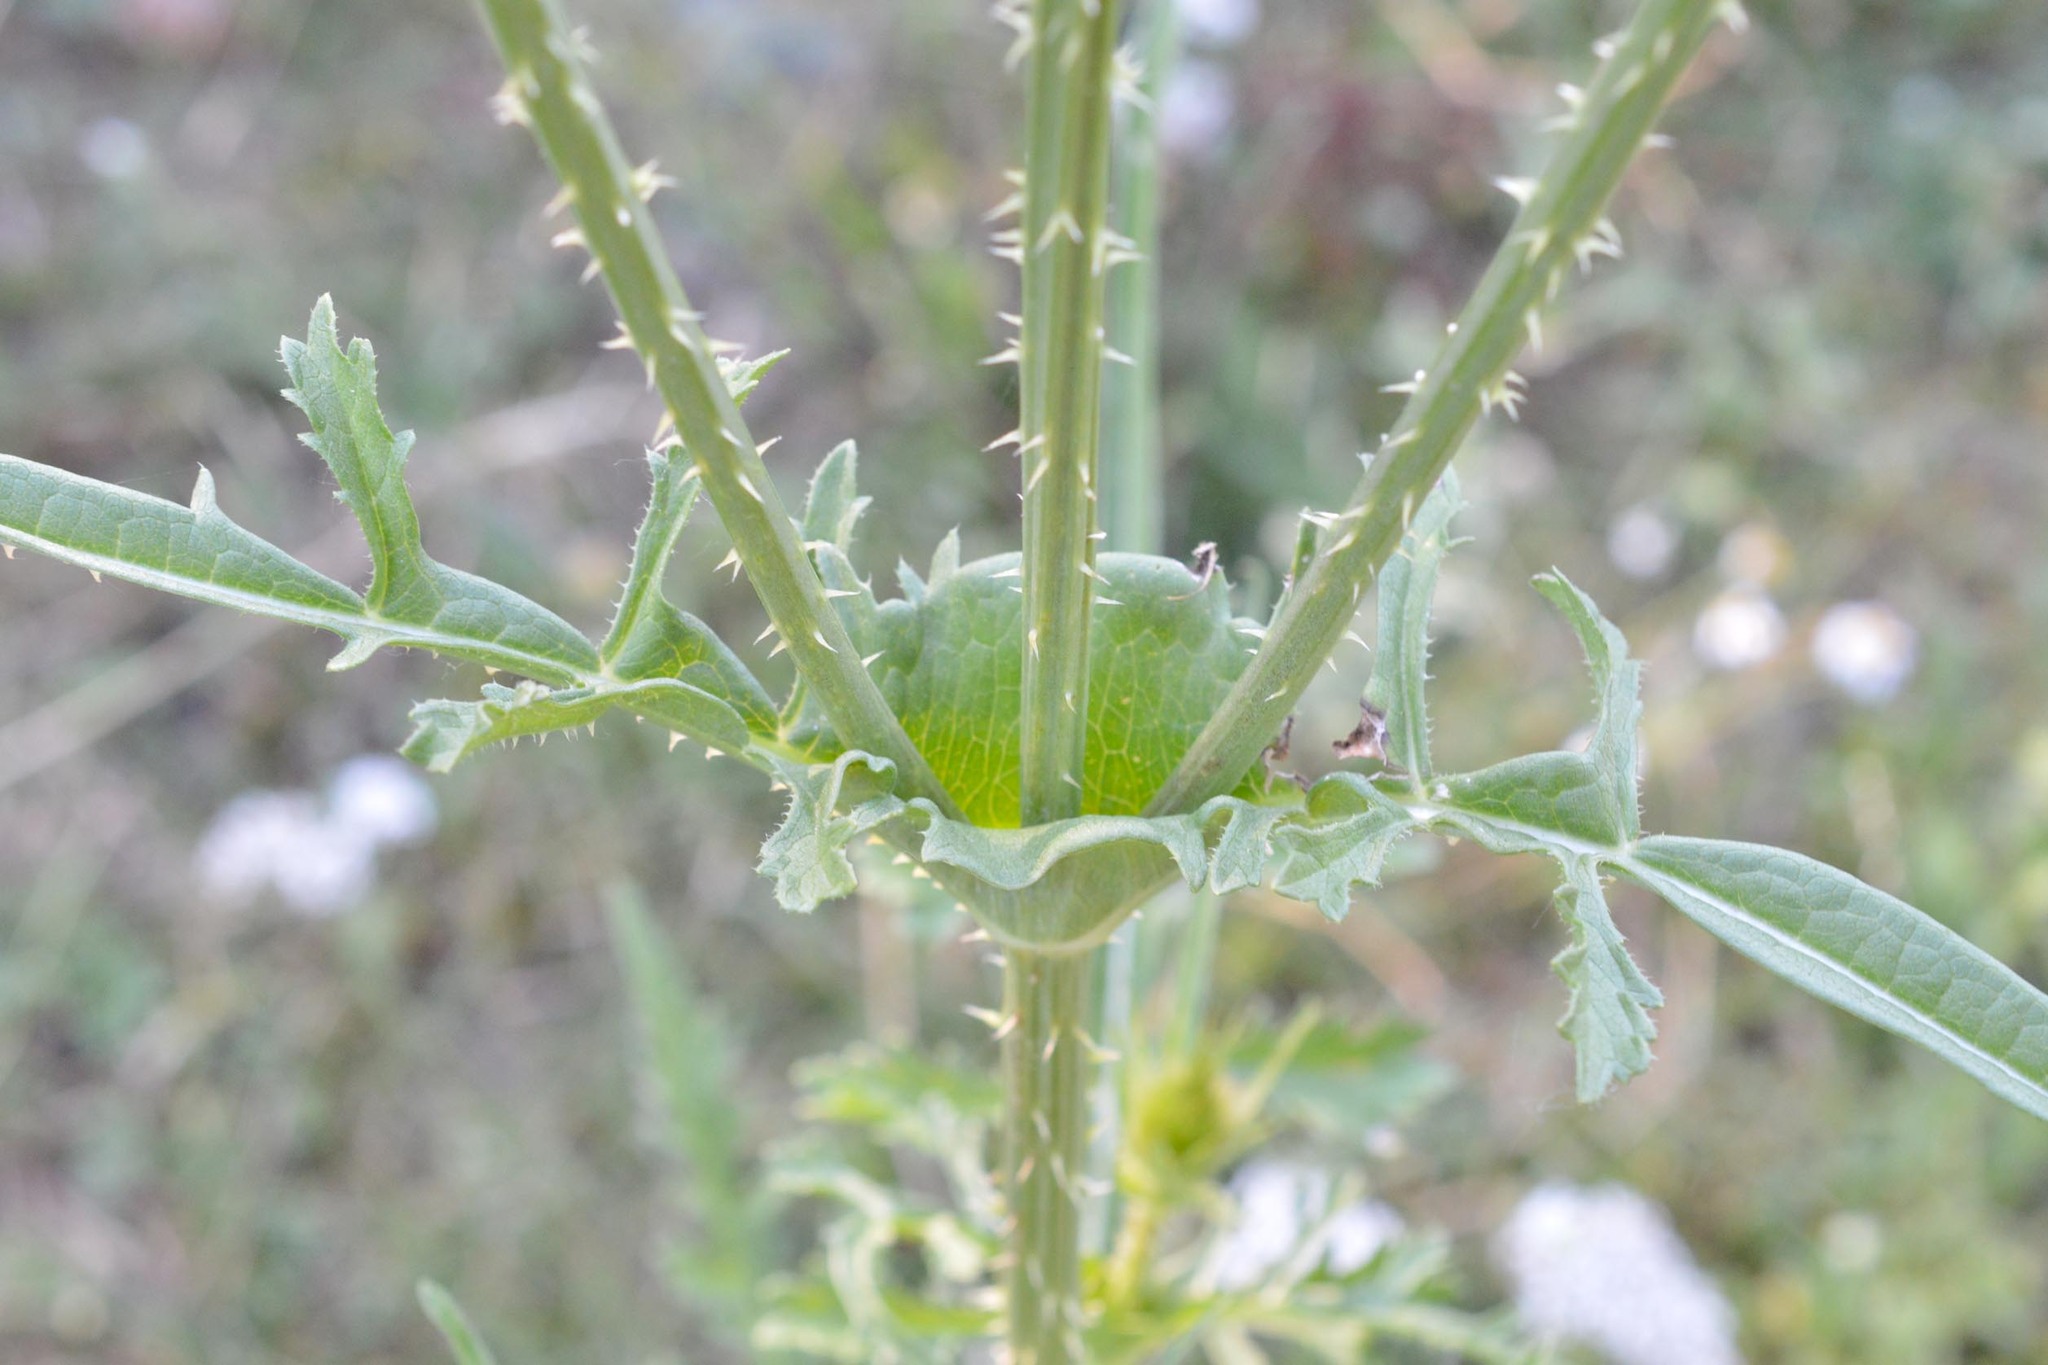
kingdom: Plantae
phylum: Tracheophyta
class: Magnoliopsida
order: Dipsacales
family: Caprifoliaceae
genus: Dipsacus
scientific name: Dipsacus laciniatus
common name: Cut-leaved teasel
